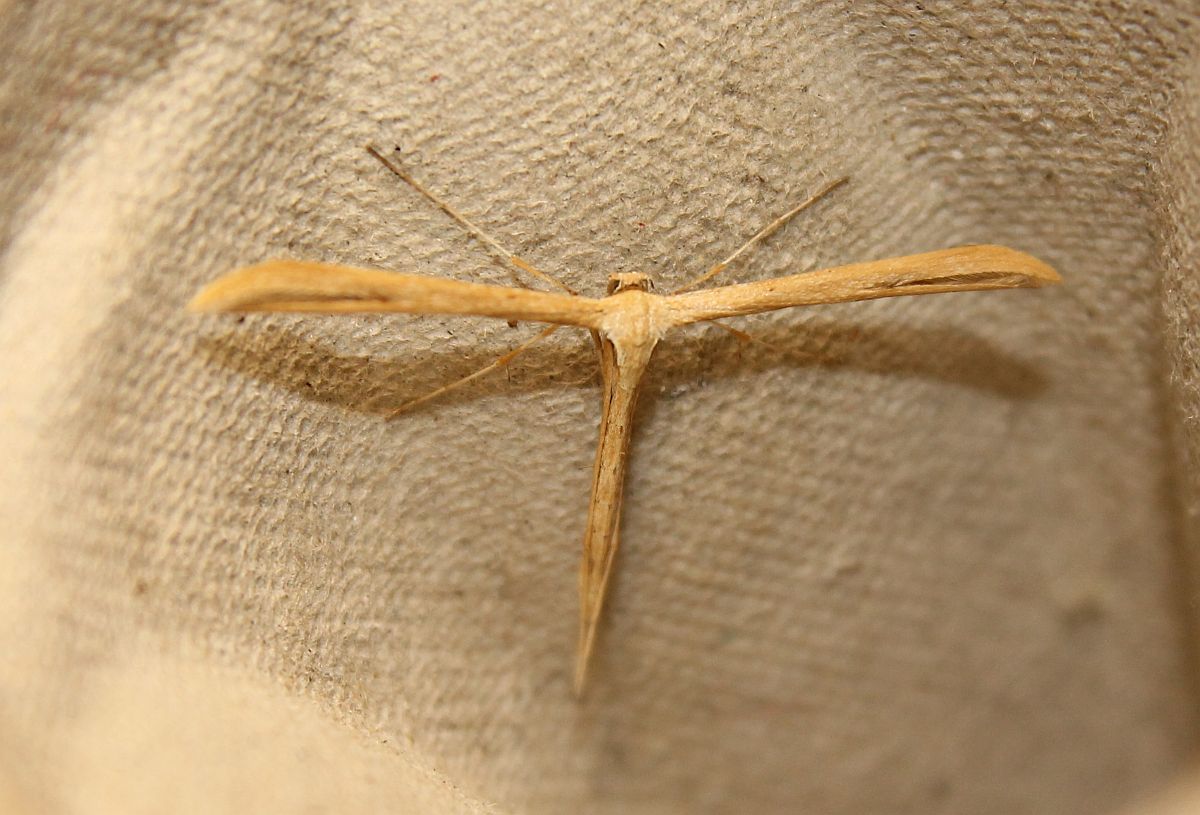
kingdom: Animalia
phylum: Arthropoda
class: Insecta
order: Lepidoptera
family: Pterophoridae
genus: Emmelina
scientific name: Emmelina monodactyla
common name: Common plume
